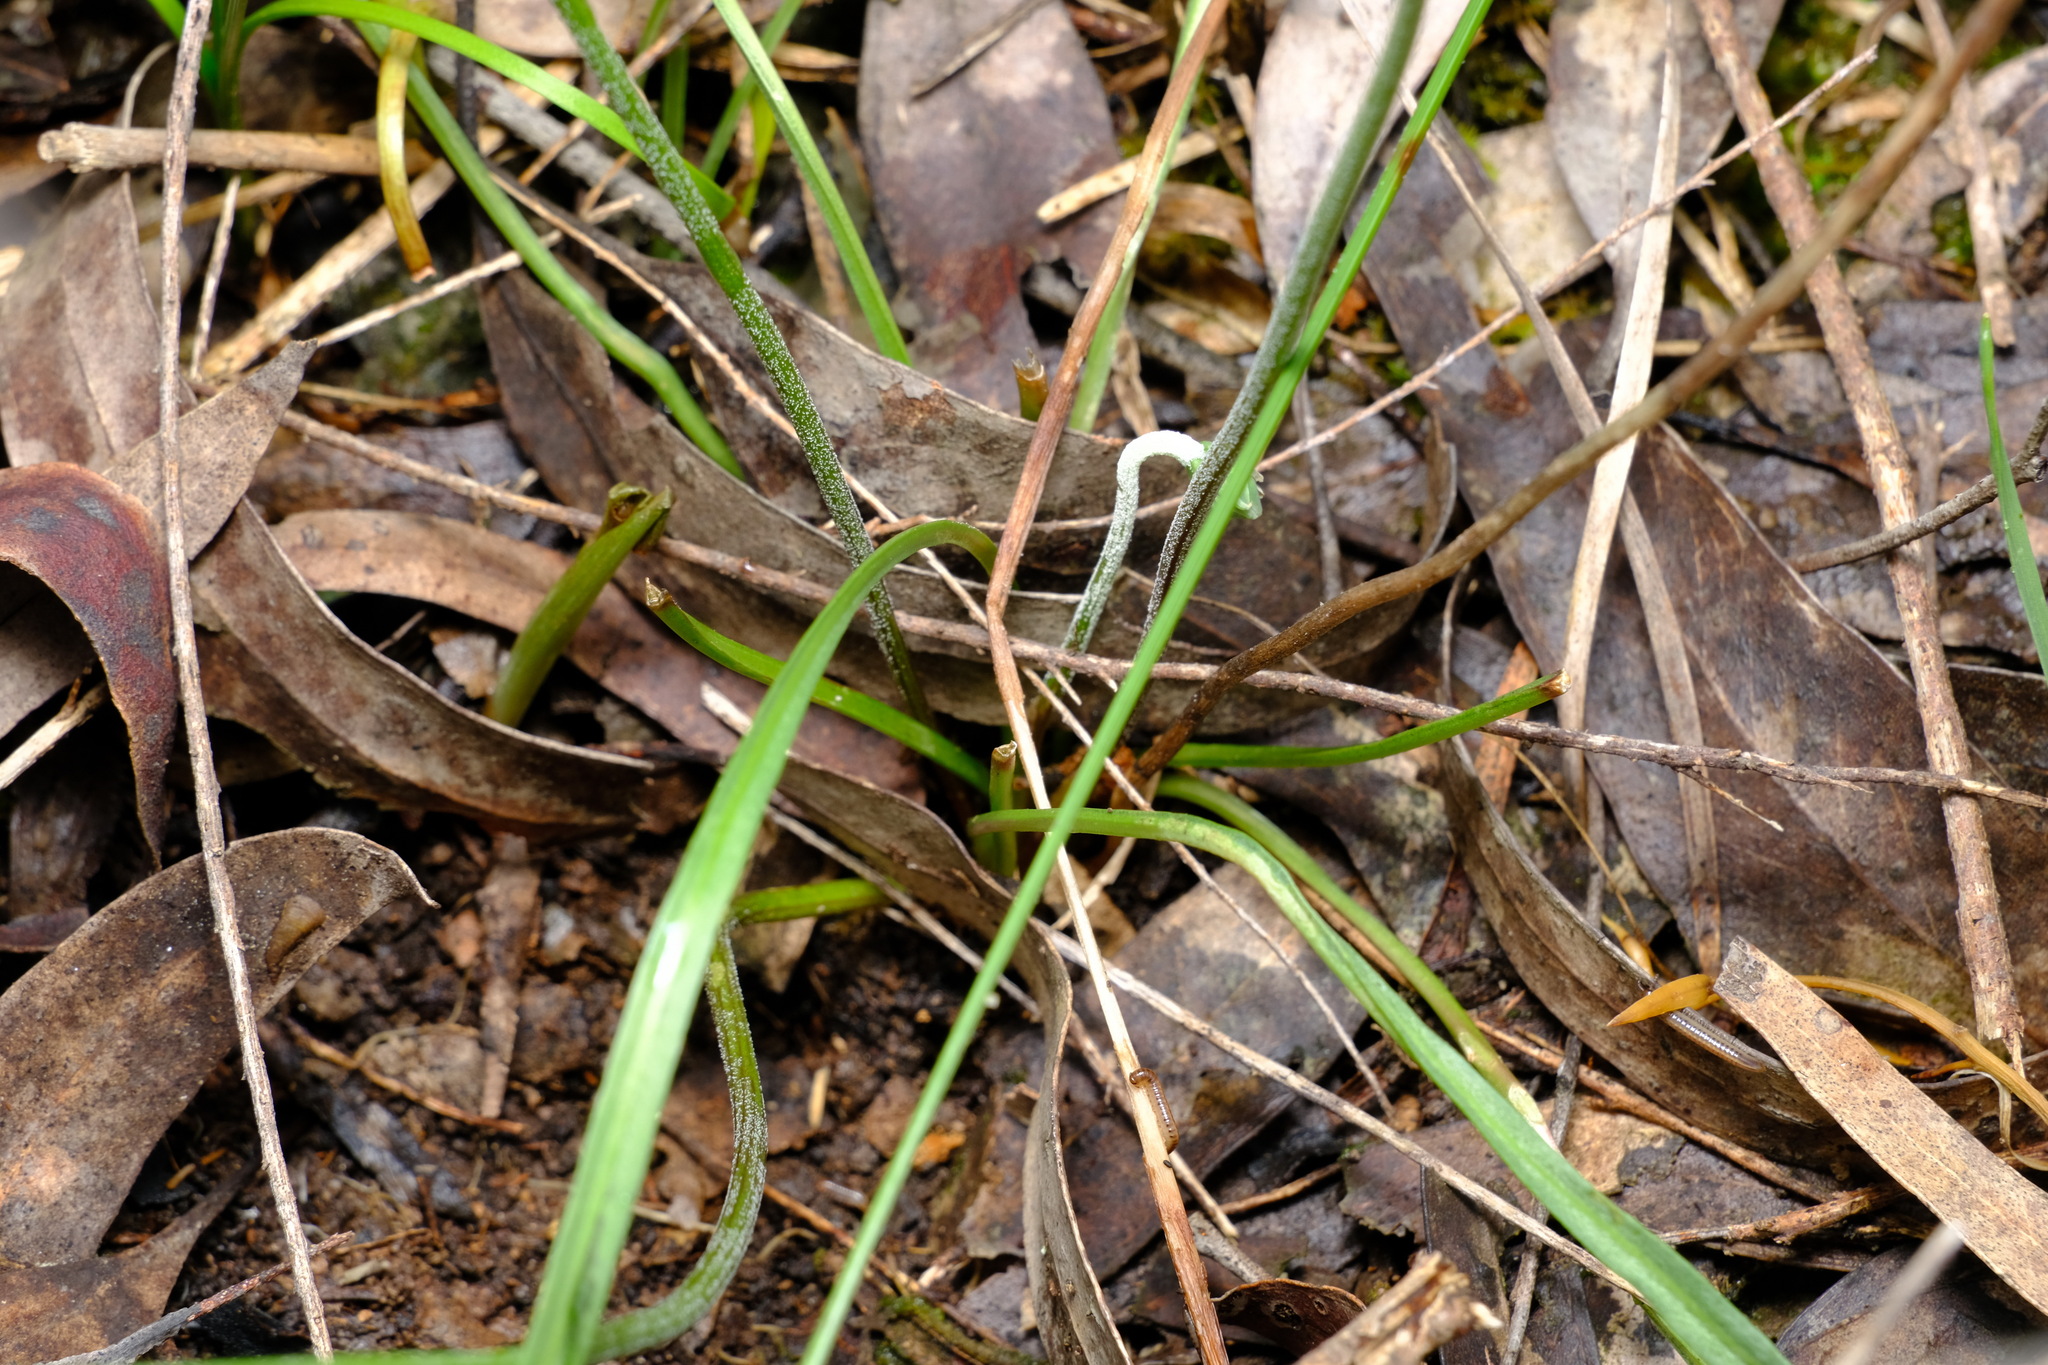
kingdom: Plantae
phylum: Tracheophyta
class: Magnoliopsida
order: Asterales
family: Asteraceae
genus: Microseris
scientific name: Microseris lanceolata
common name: Yam daisy
